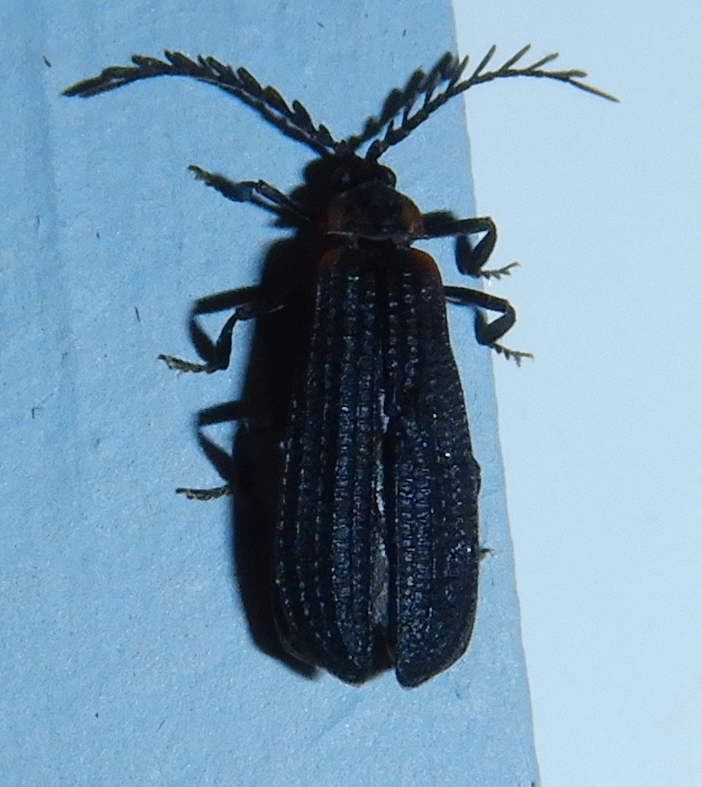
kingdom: Animalia
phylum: Arthropoda
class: Insecta
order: Coleoptera
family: Lycidae
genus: Leptoceletes
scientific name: Leptoceletes basalis
